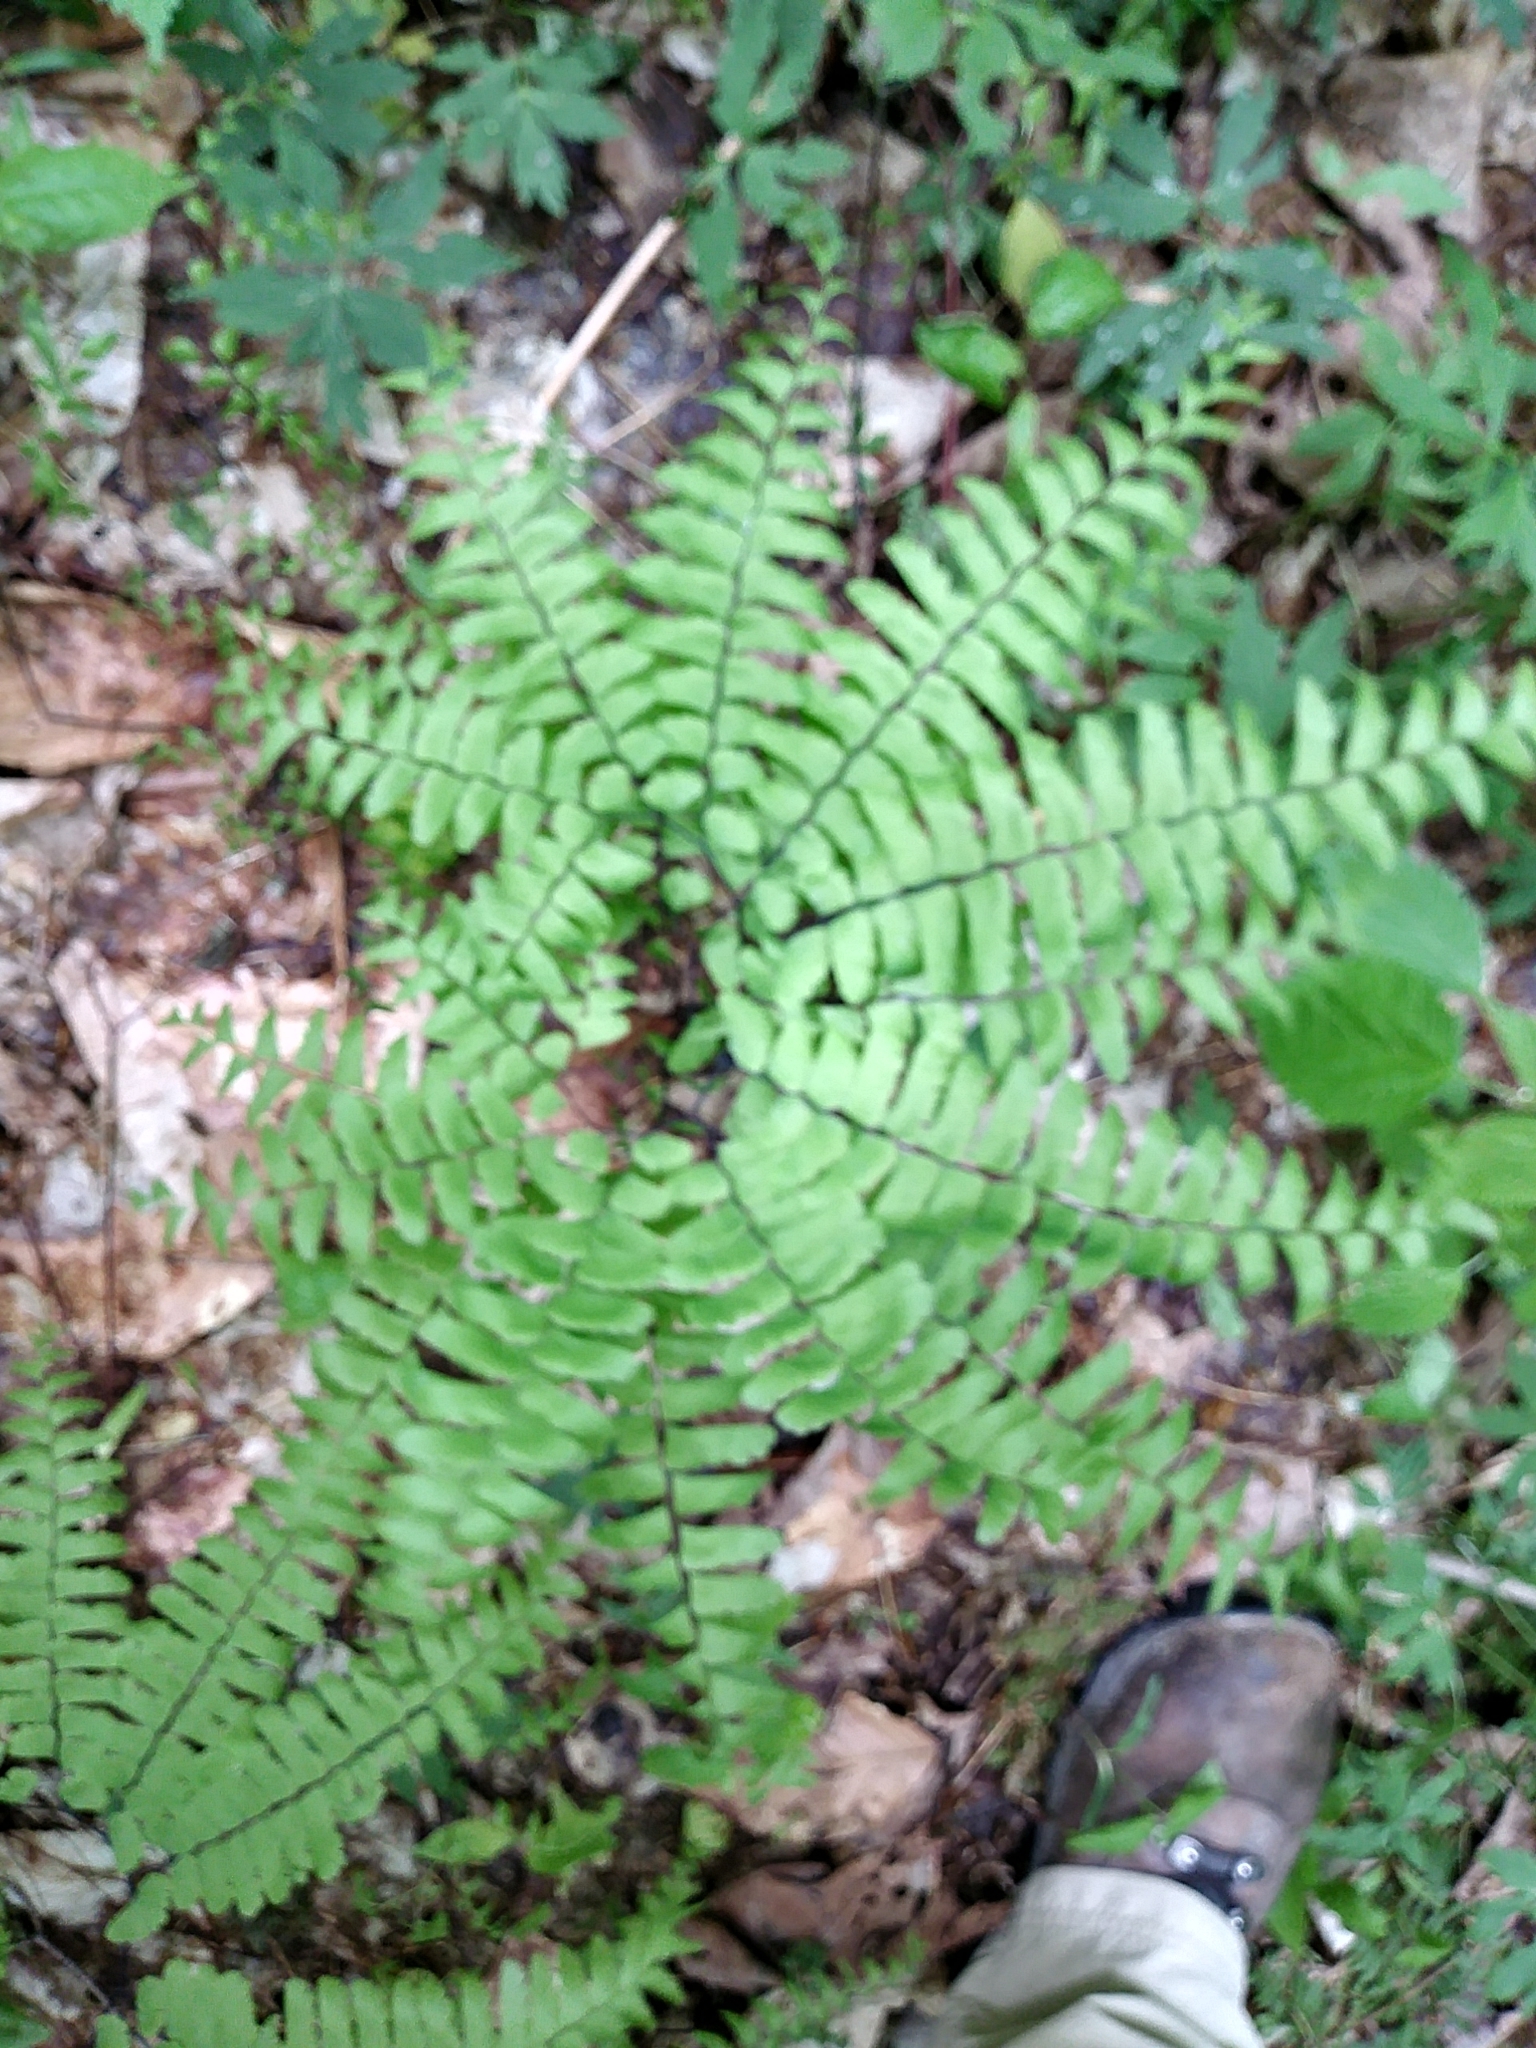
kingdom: Plantae
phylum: Tracheophyta
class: Polypodiopsida
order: Polypodiales
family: Pteridaceae
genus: Adiantum
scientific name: Adiantum pedatum
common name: Five-finger fern
